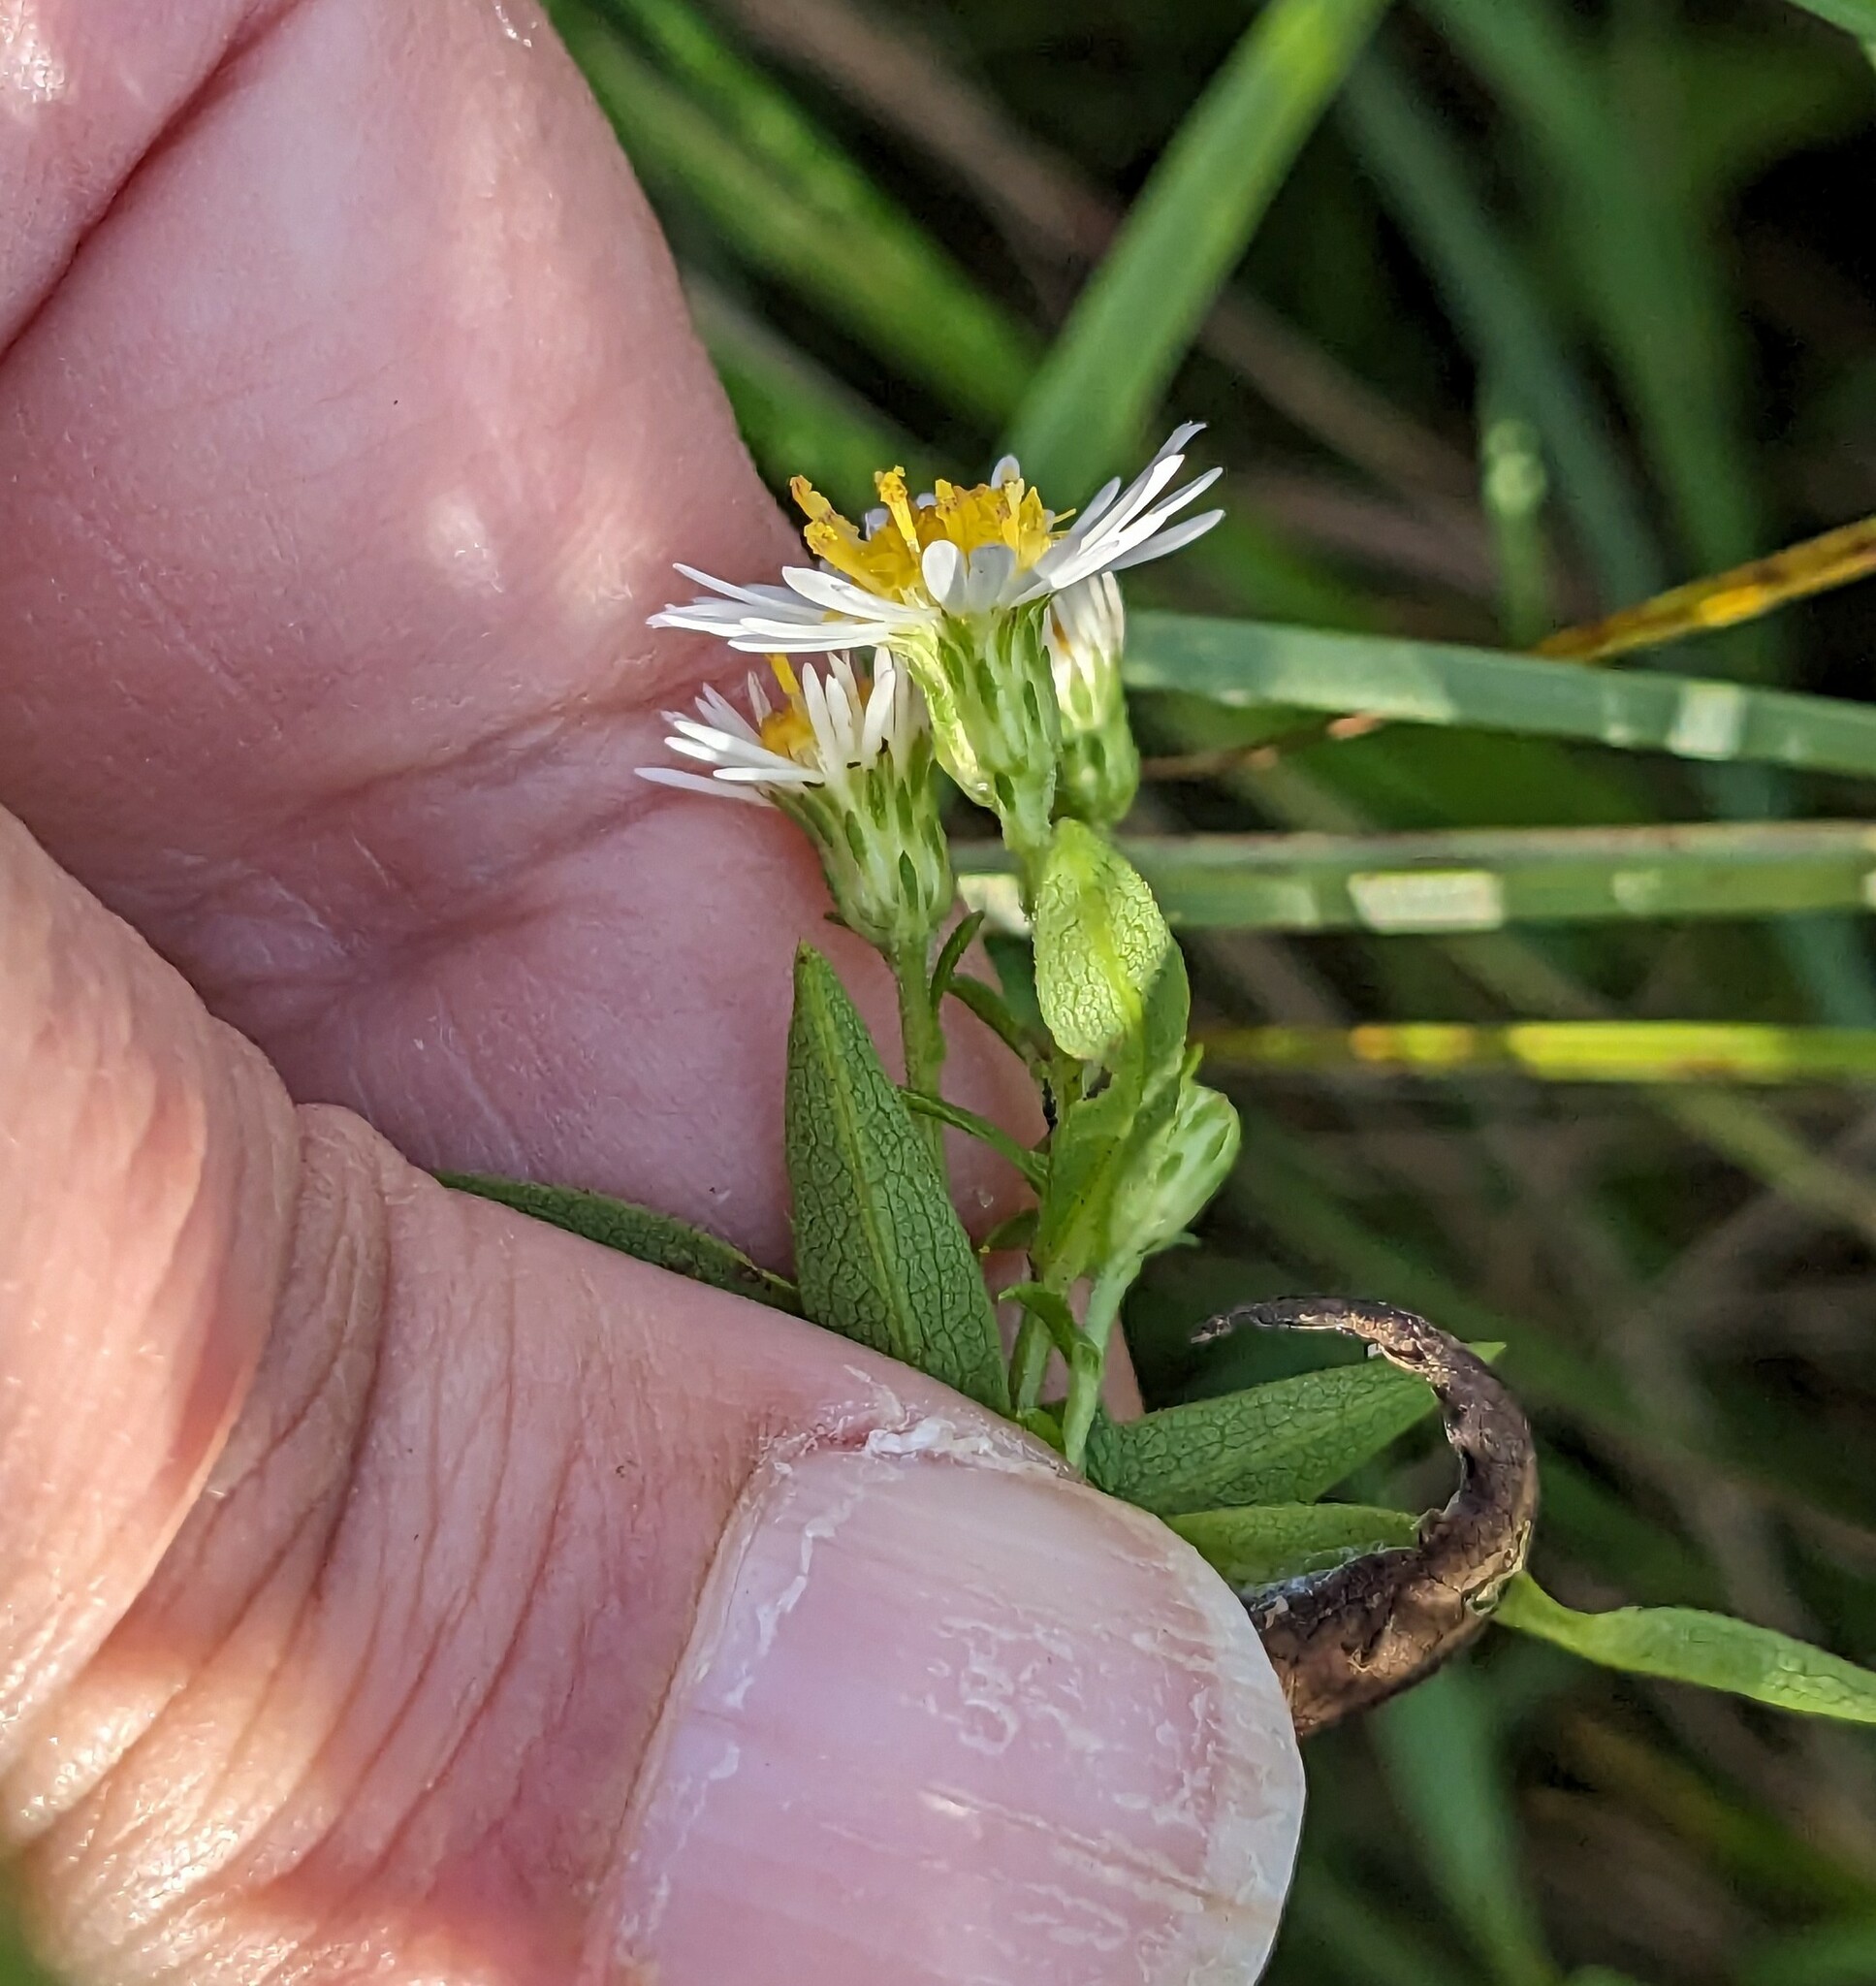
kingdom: Plantae
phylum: Tracheophyta
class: Magnoliopsida
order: Asterales
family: Asteraceae
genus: Symphyotrichum
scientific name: Symphyotrichum lanceolatum
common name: Panicled aster
